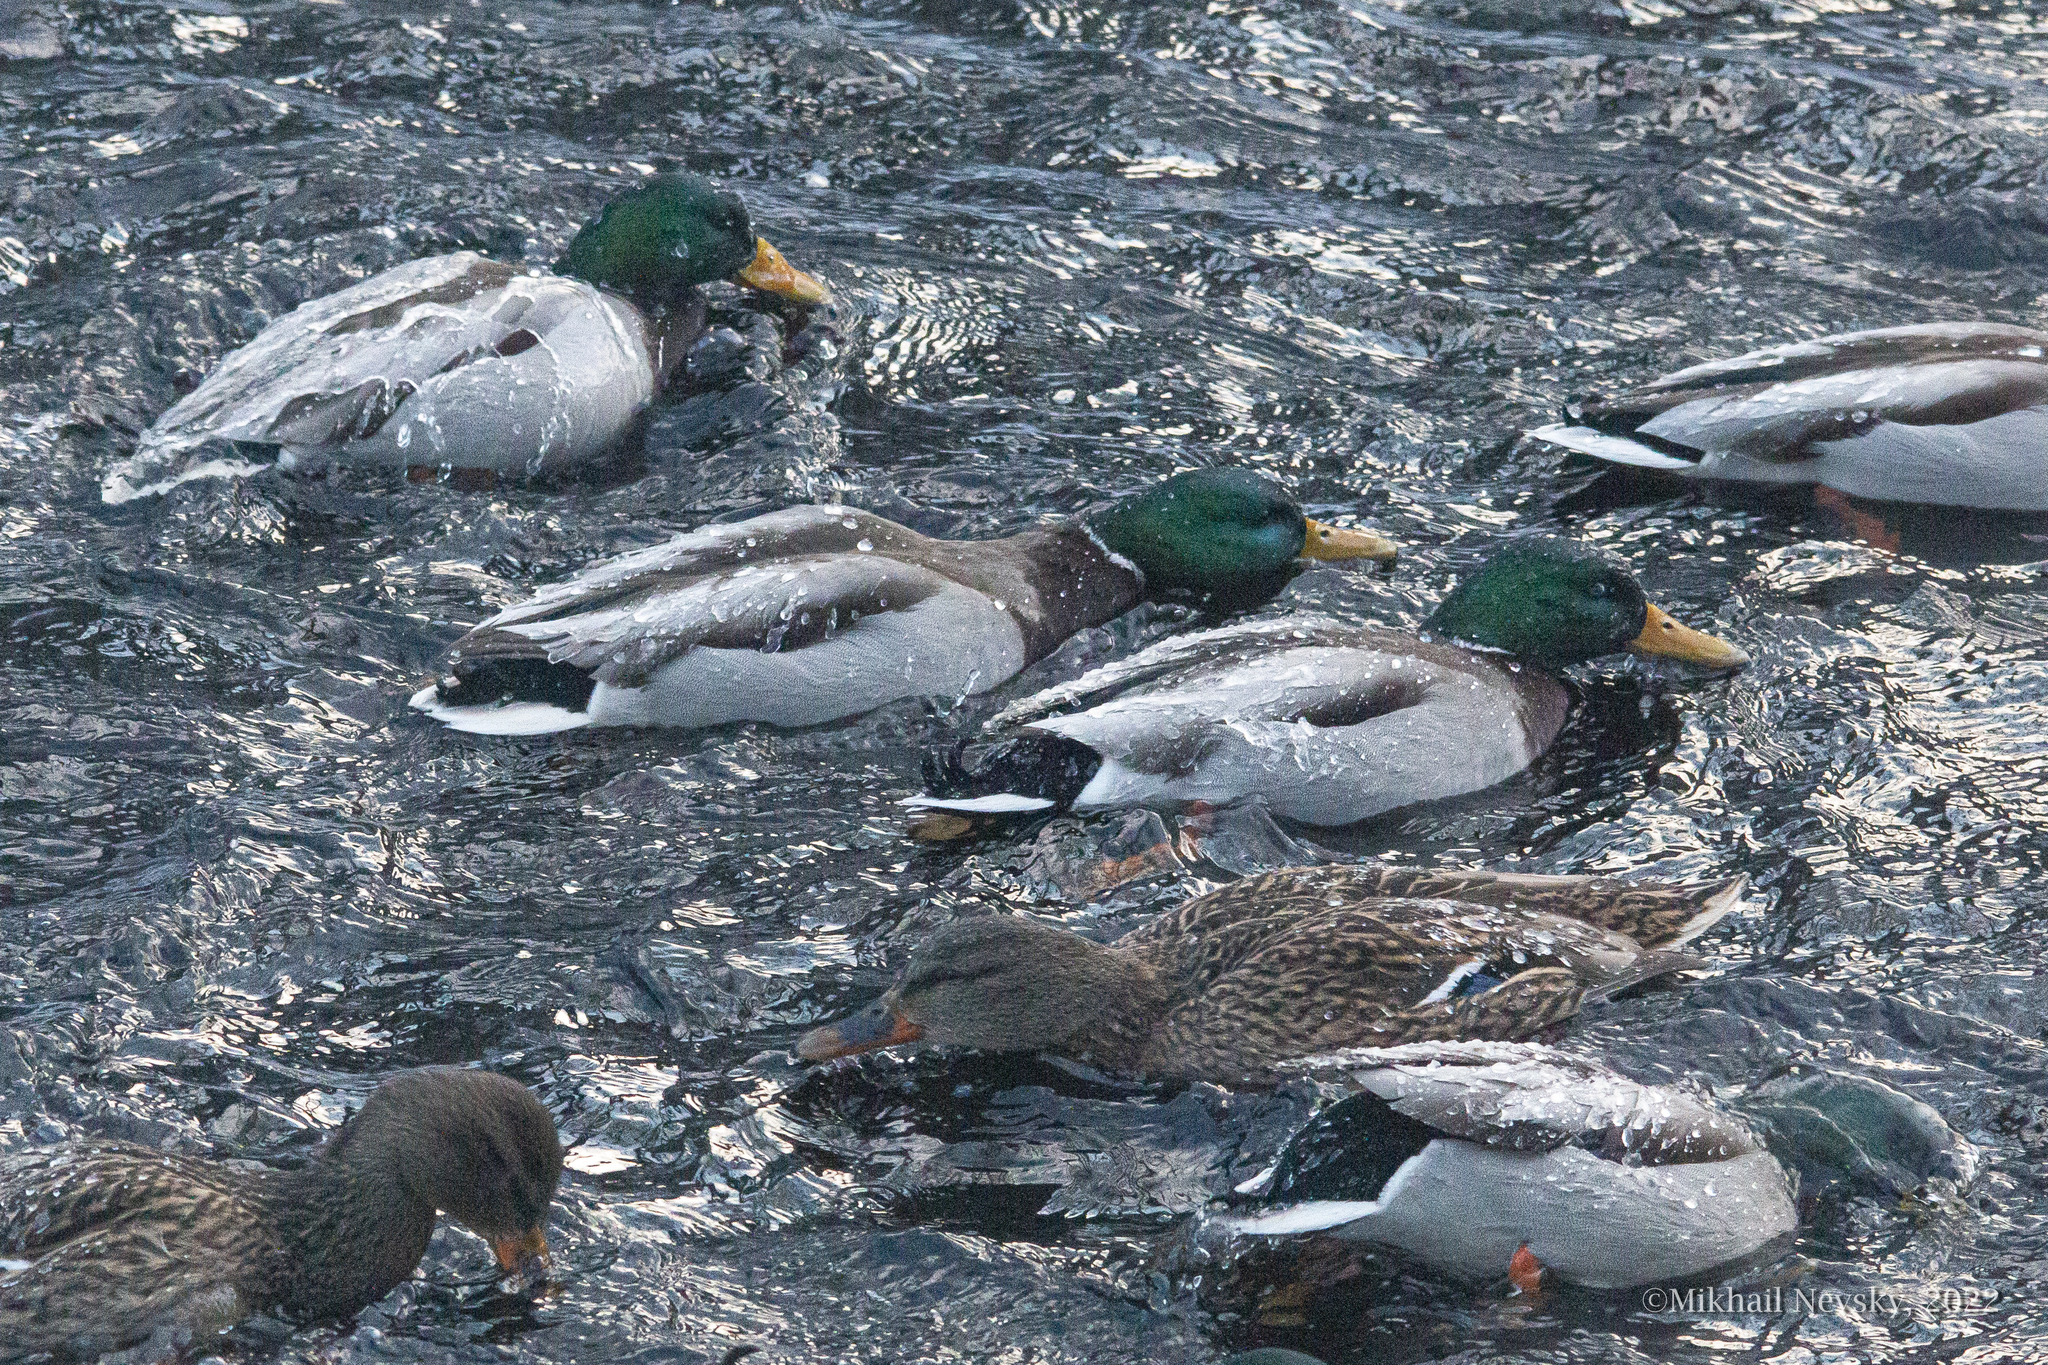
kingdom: Animalia
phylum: Chordata
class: Aves
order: Anseriformes
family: Anatidae
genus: Anas
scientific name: Anas platyrhynchos
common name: Mallard
